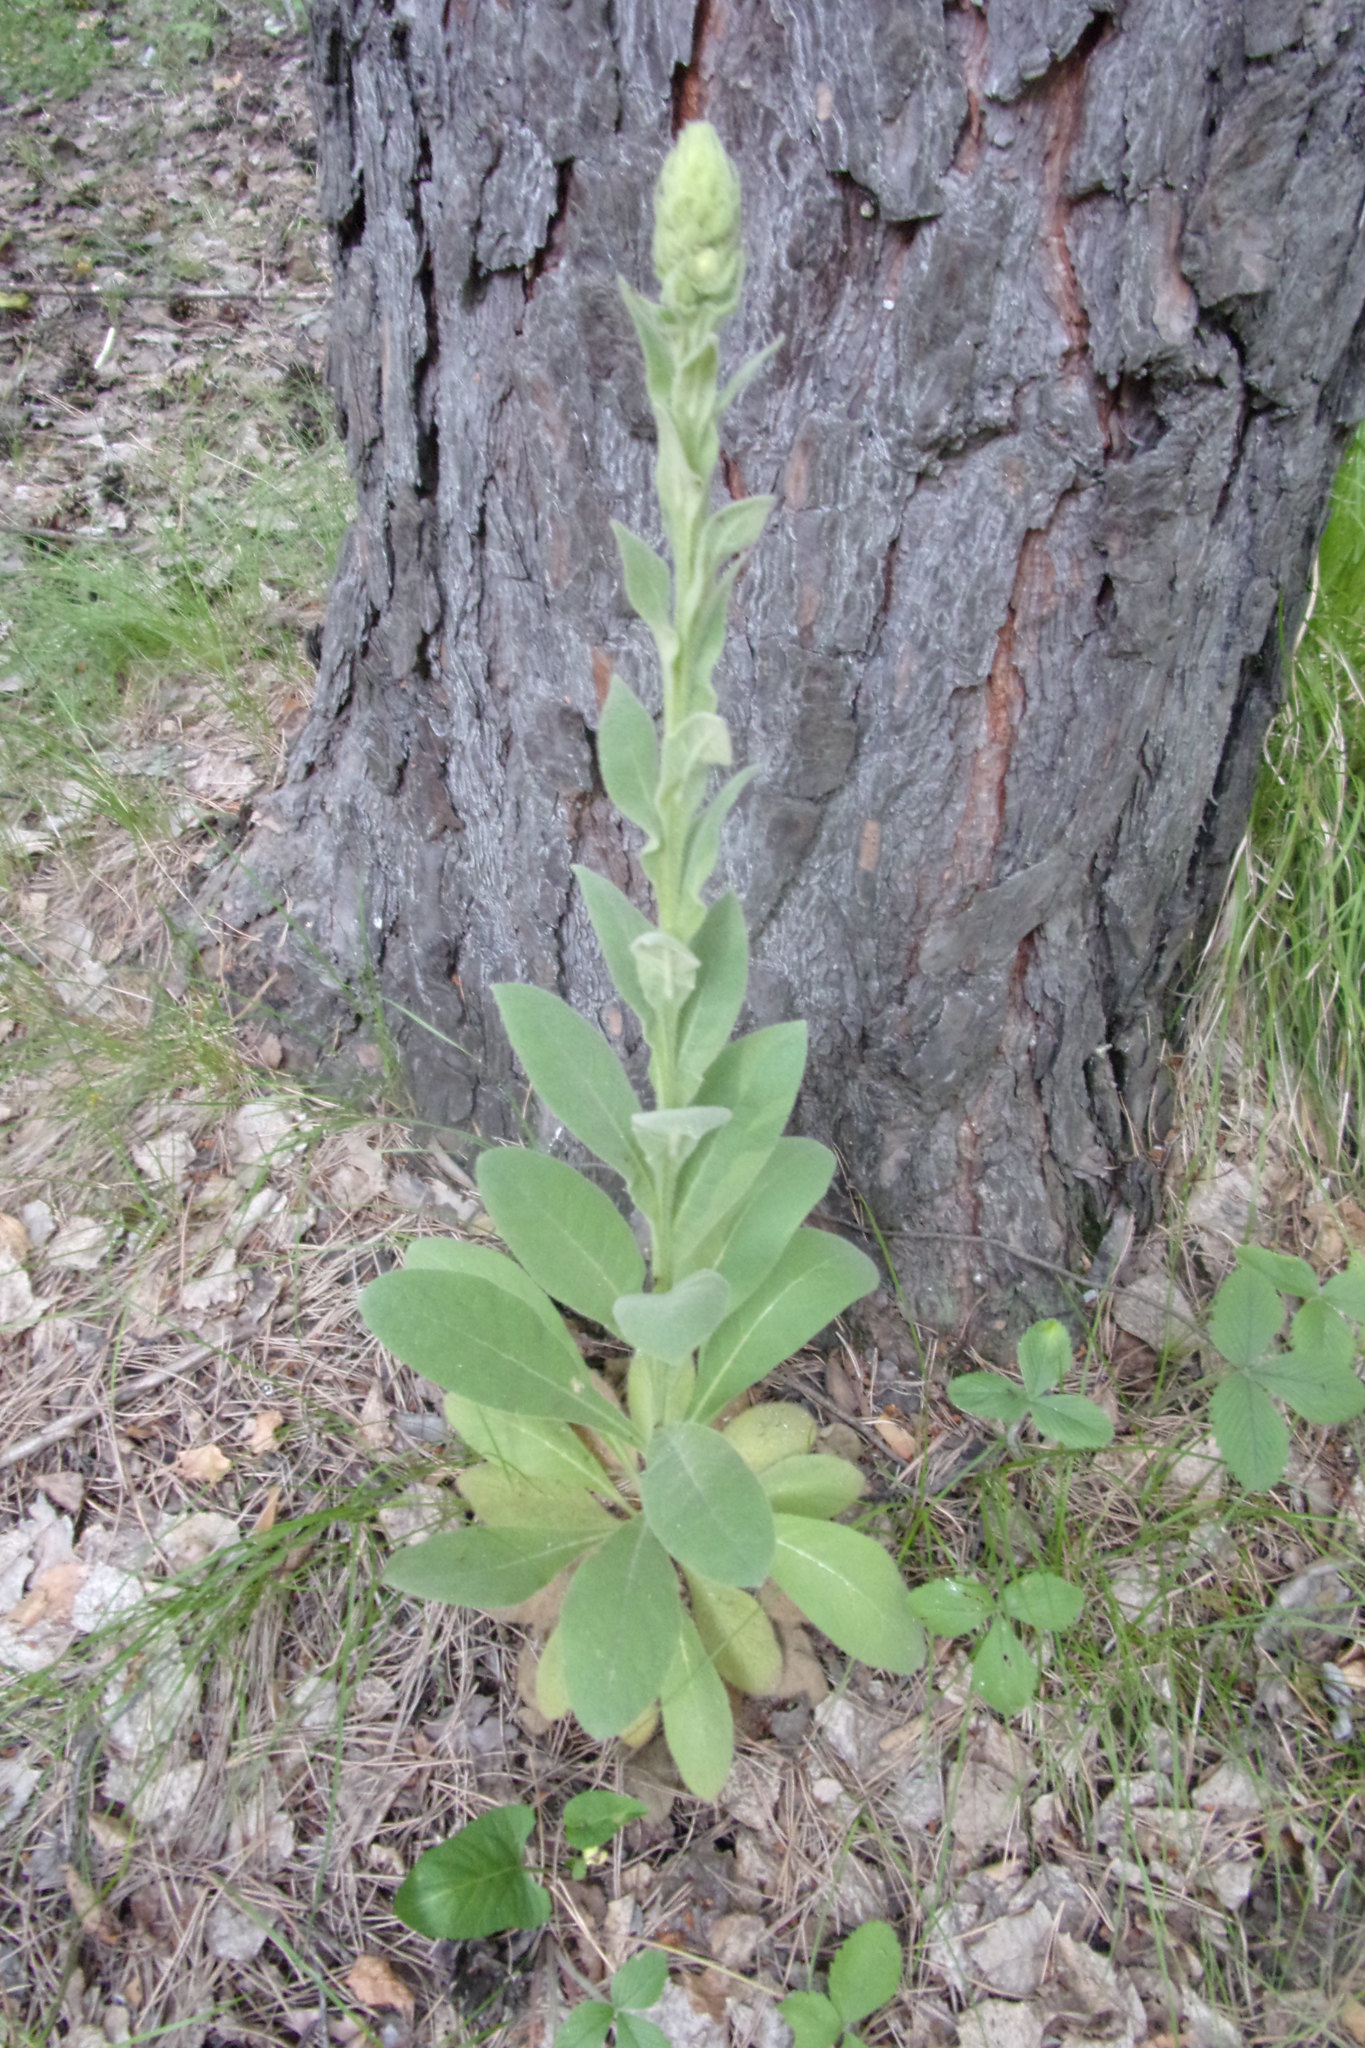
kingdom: Plantae
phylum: Tracheophyta
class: Magnoliopsida
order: Lamiales
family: Scrophulariaceae
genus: Verbascum
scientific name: Verbascum thapsus
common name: Common mullein
